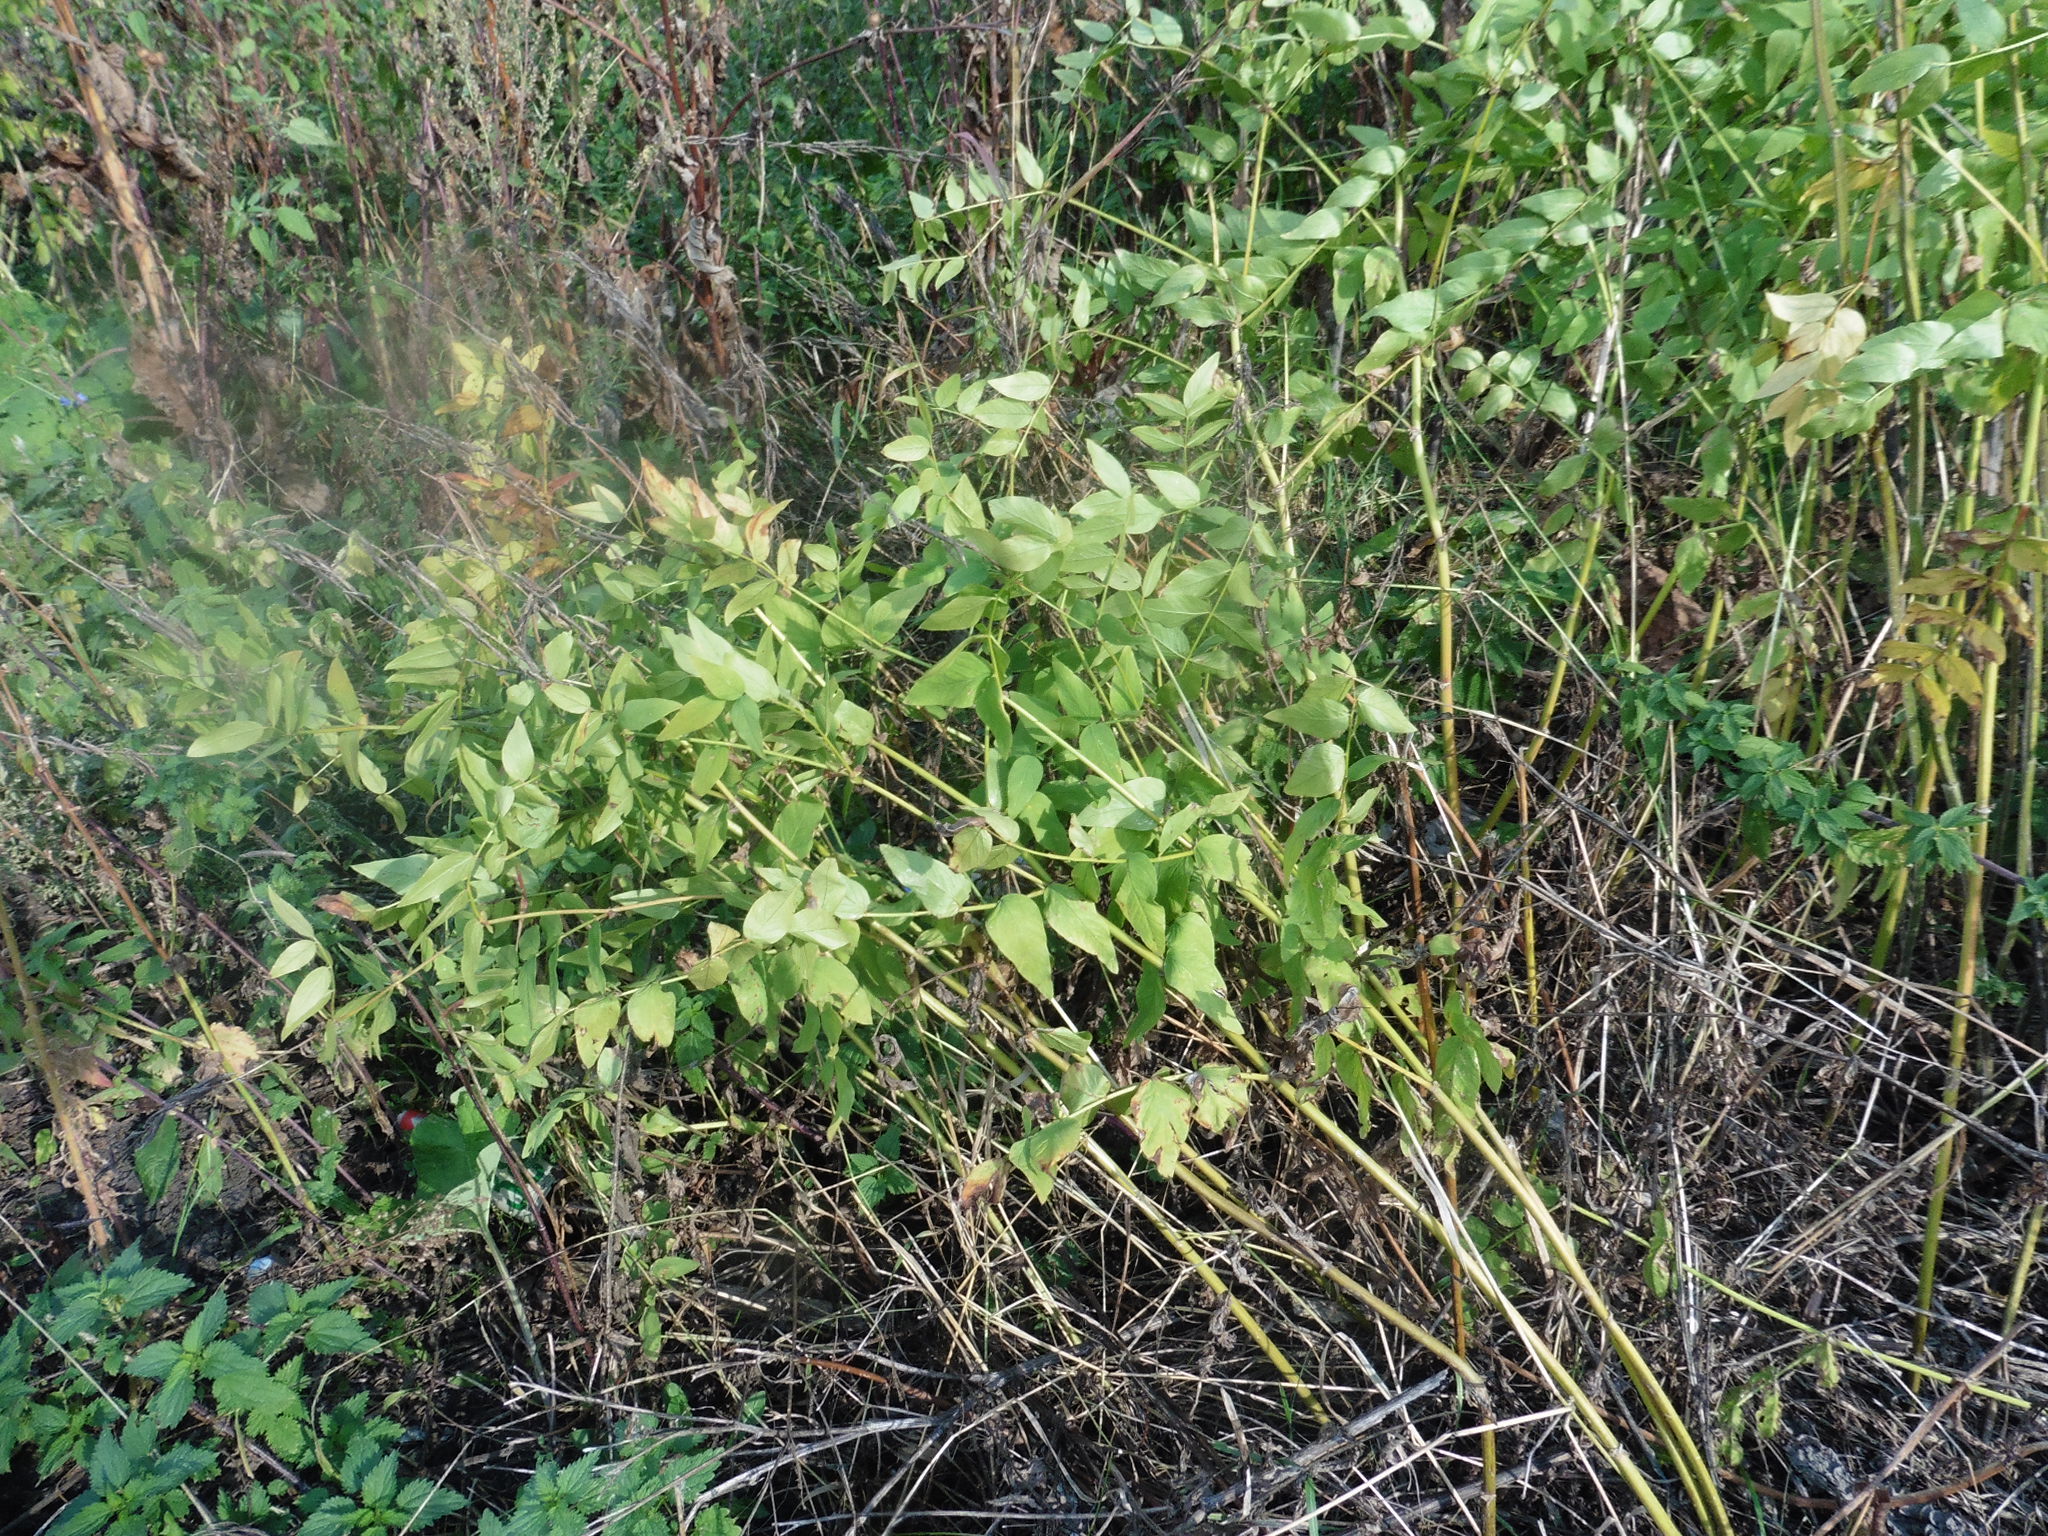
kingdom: Plantae
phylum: Tracheophyta
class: Magnoliopsida
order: Fabales
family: Fabaceae
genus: Galega
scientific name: Galega orientalis
